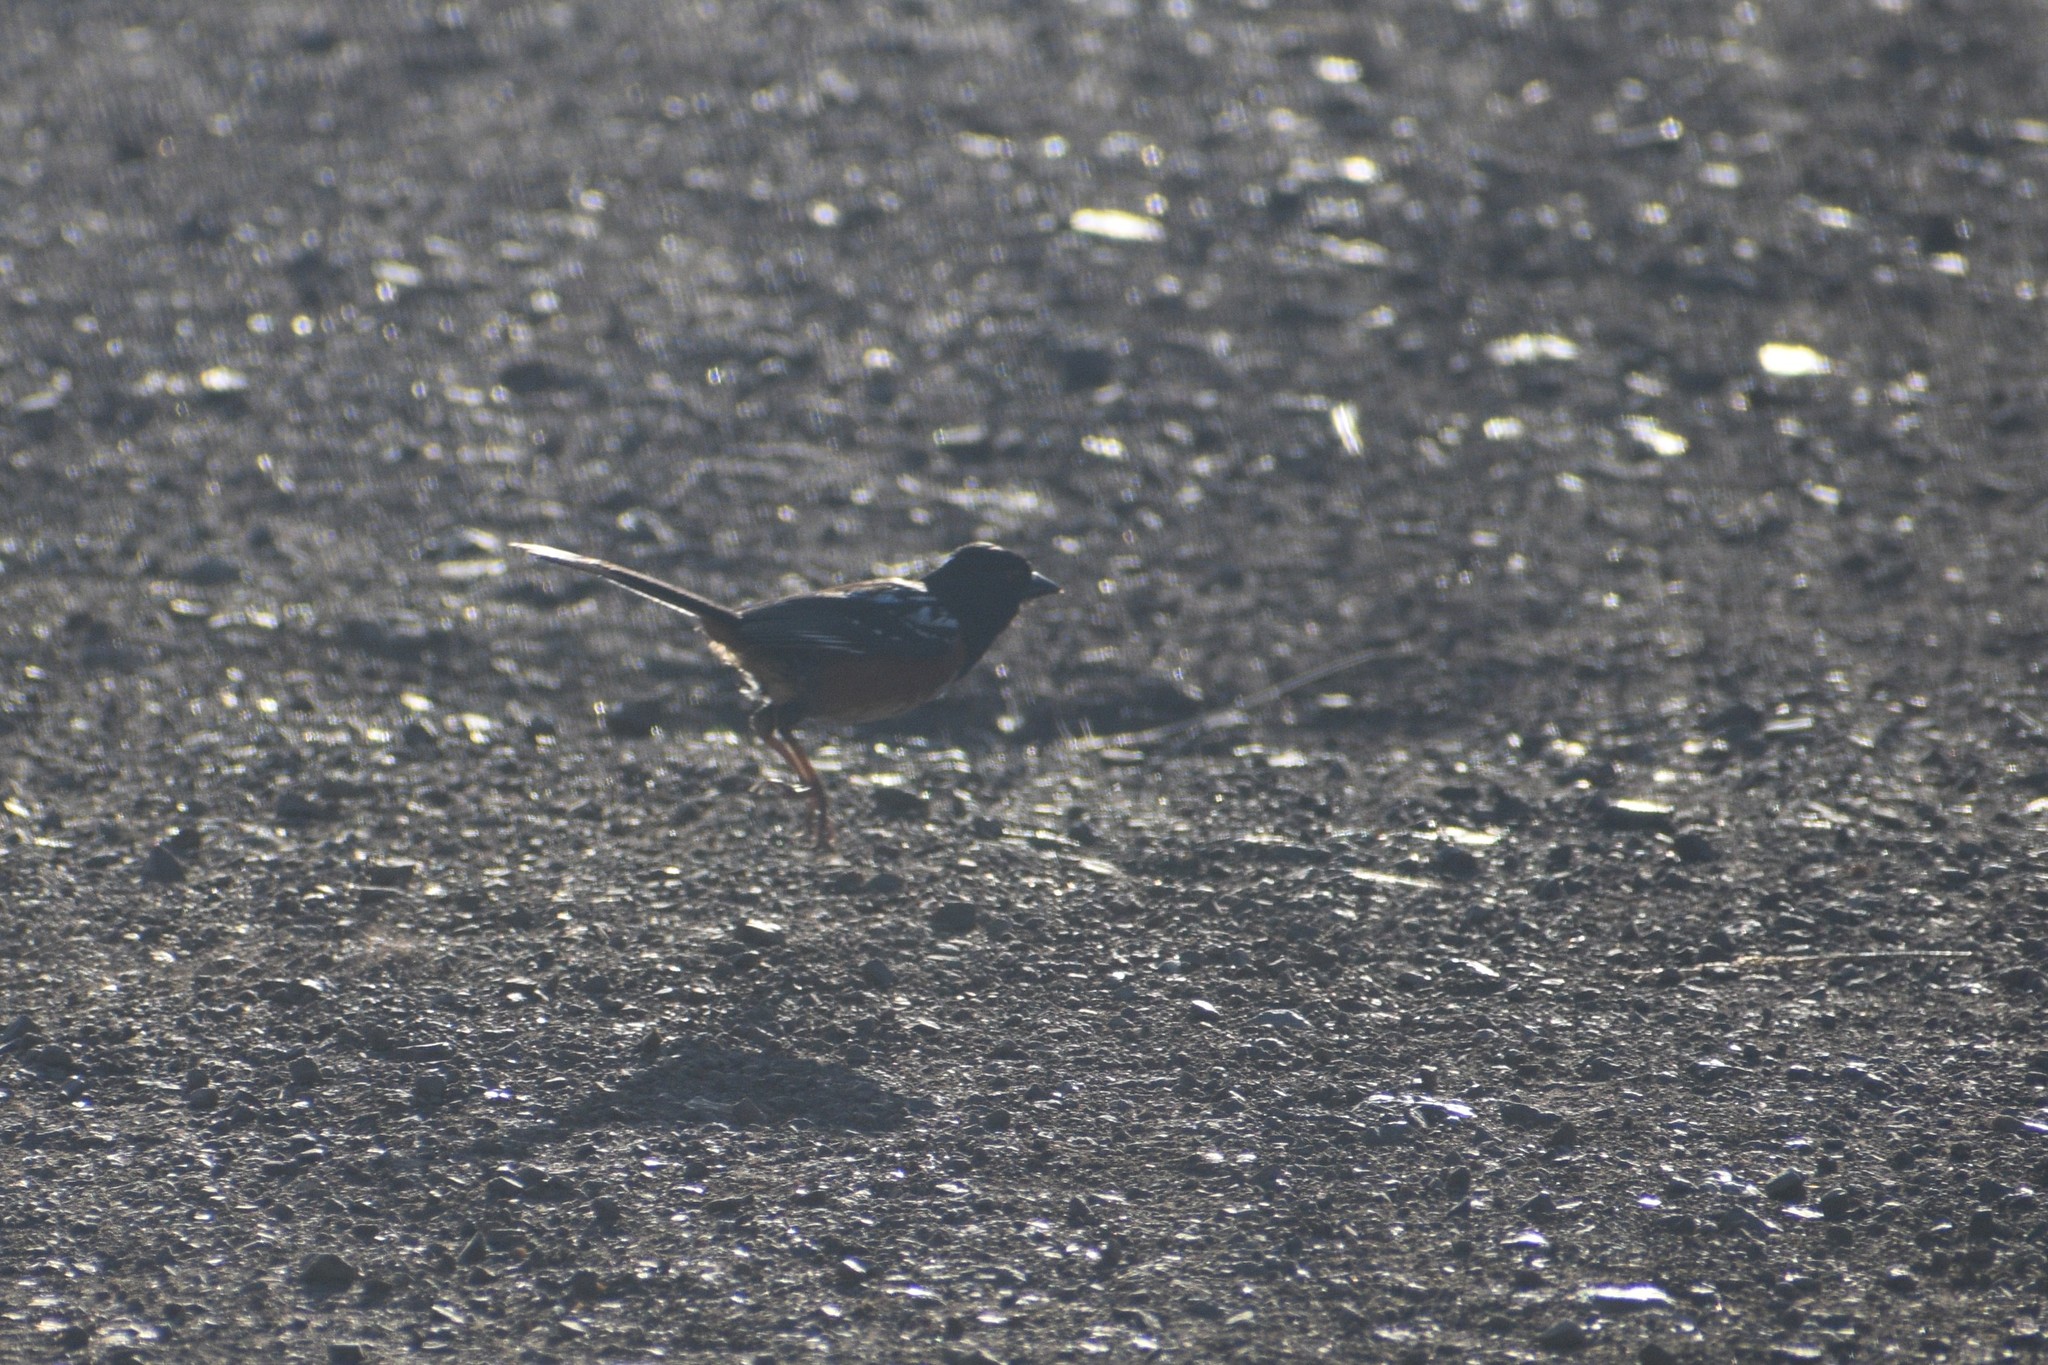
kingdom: Animalia
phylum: Chordata
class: Aves
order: Passeriformes
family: Passerellidae
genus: Pipilo
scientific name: Pipilo maculatus
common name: Spotted towhee
